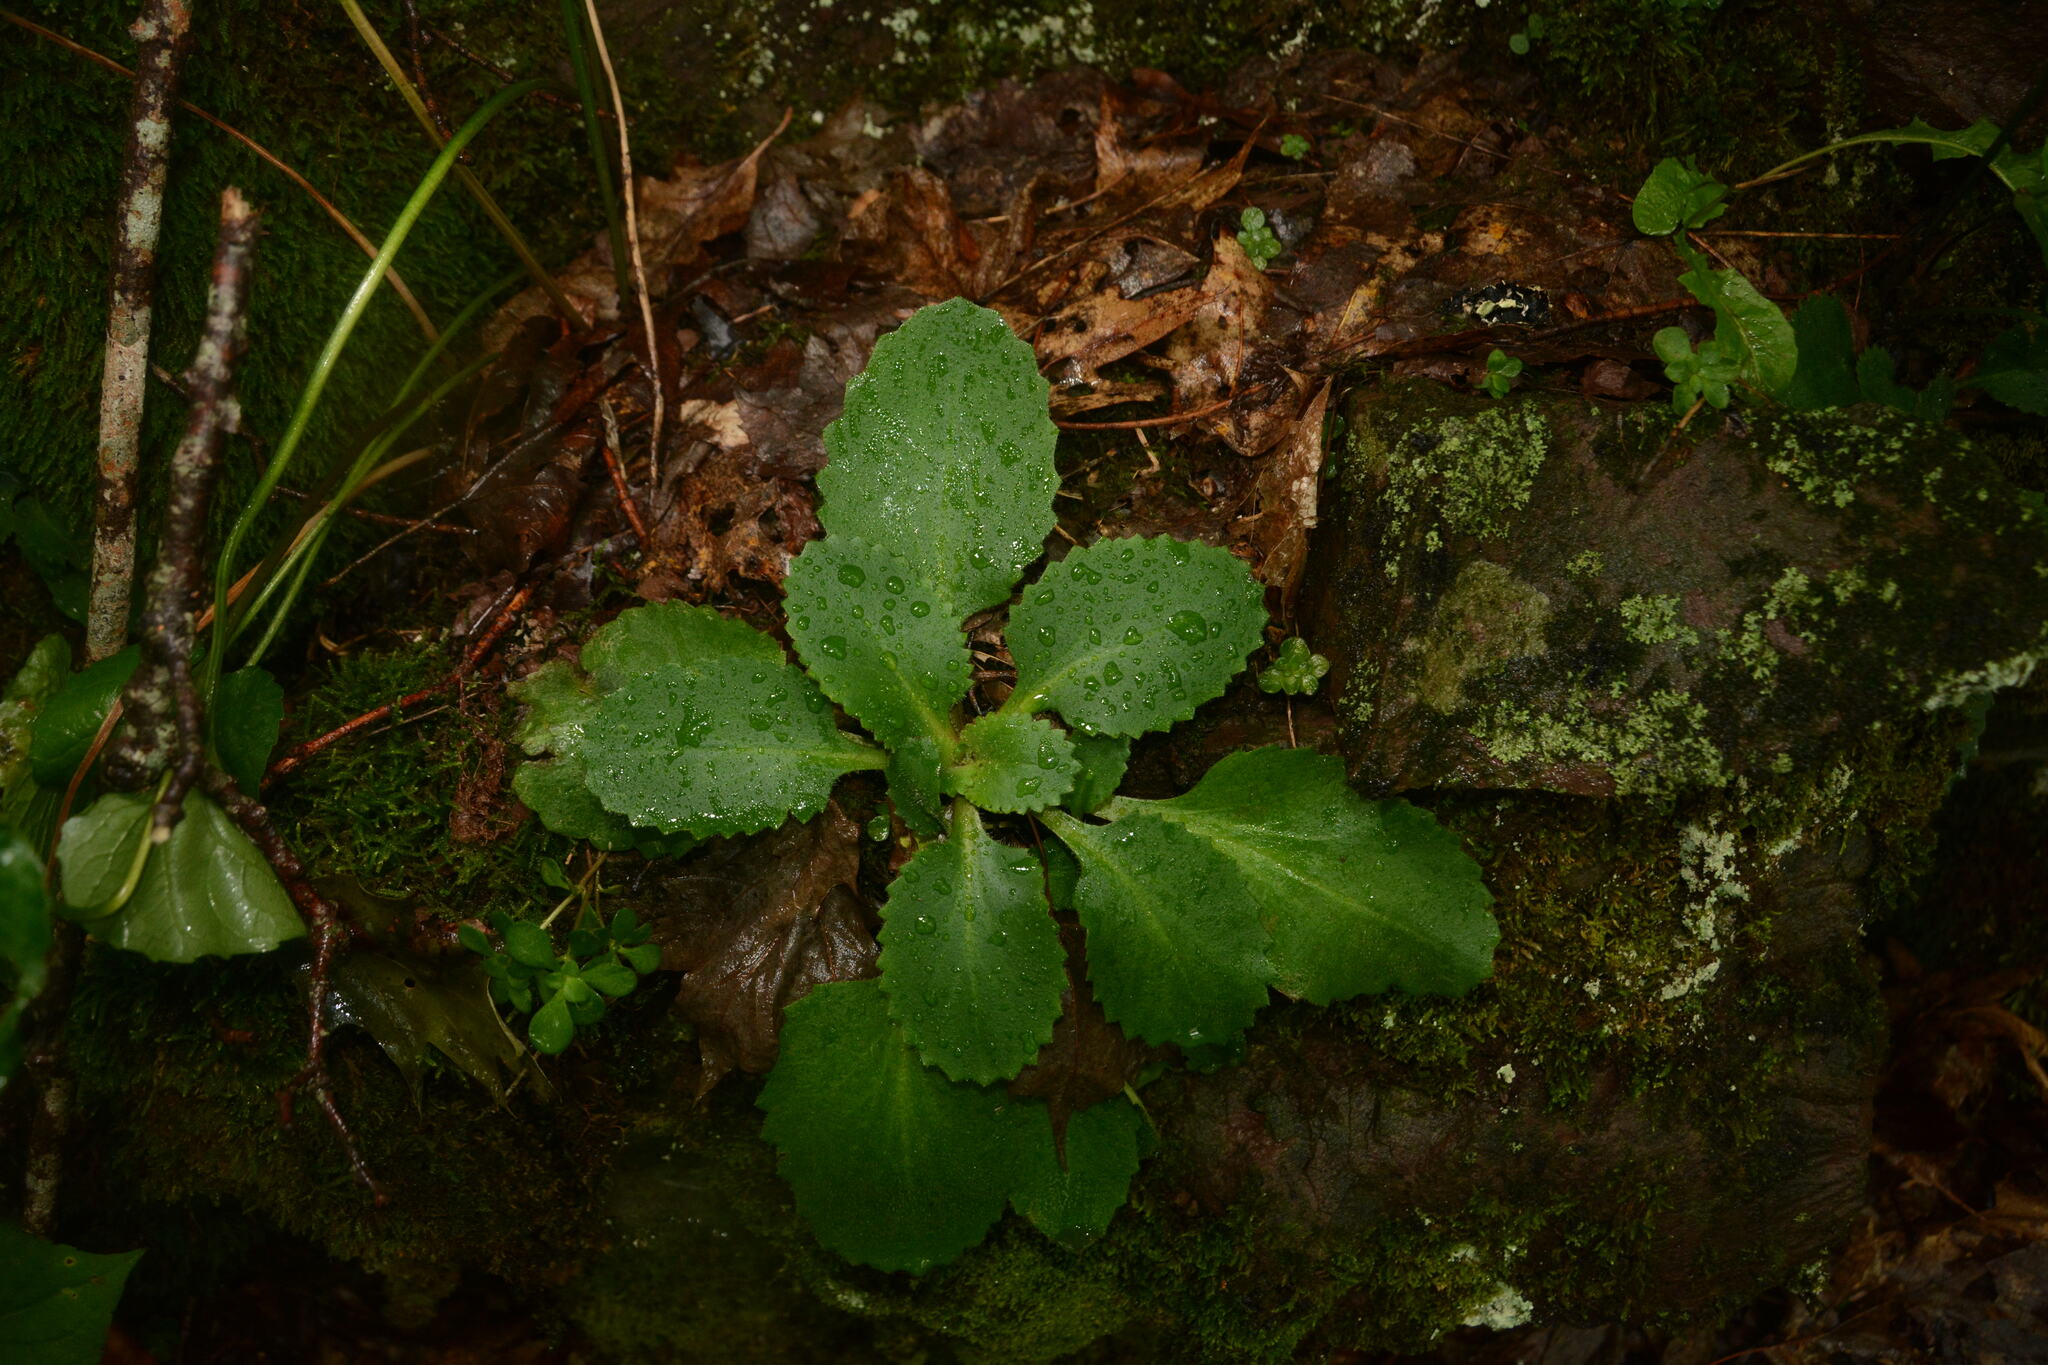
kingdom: Plantae
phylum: Tracheophyta
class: Magnoliopsida
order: Saxifragales
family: Saxifragaceae
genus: Micranthes
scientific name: Micranthes virginiensis
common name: Early saxifrage
